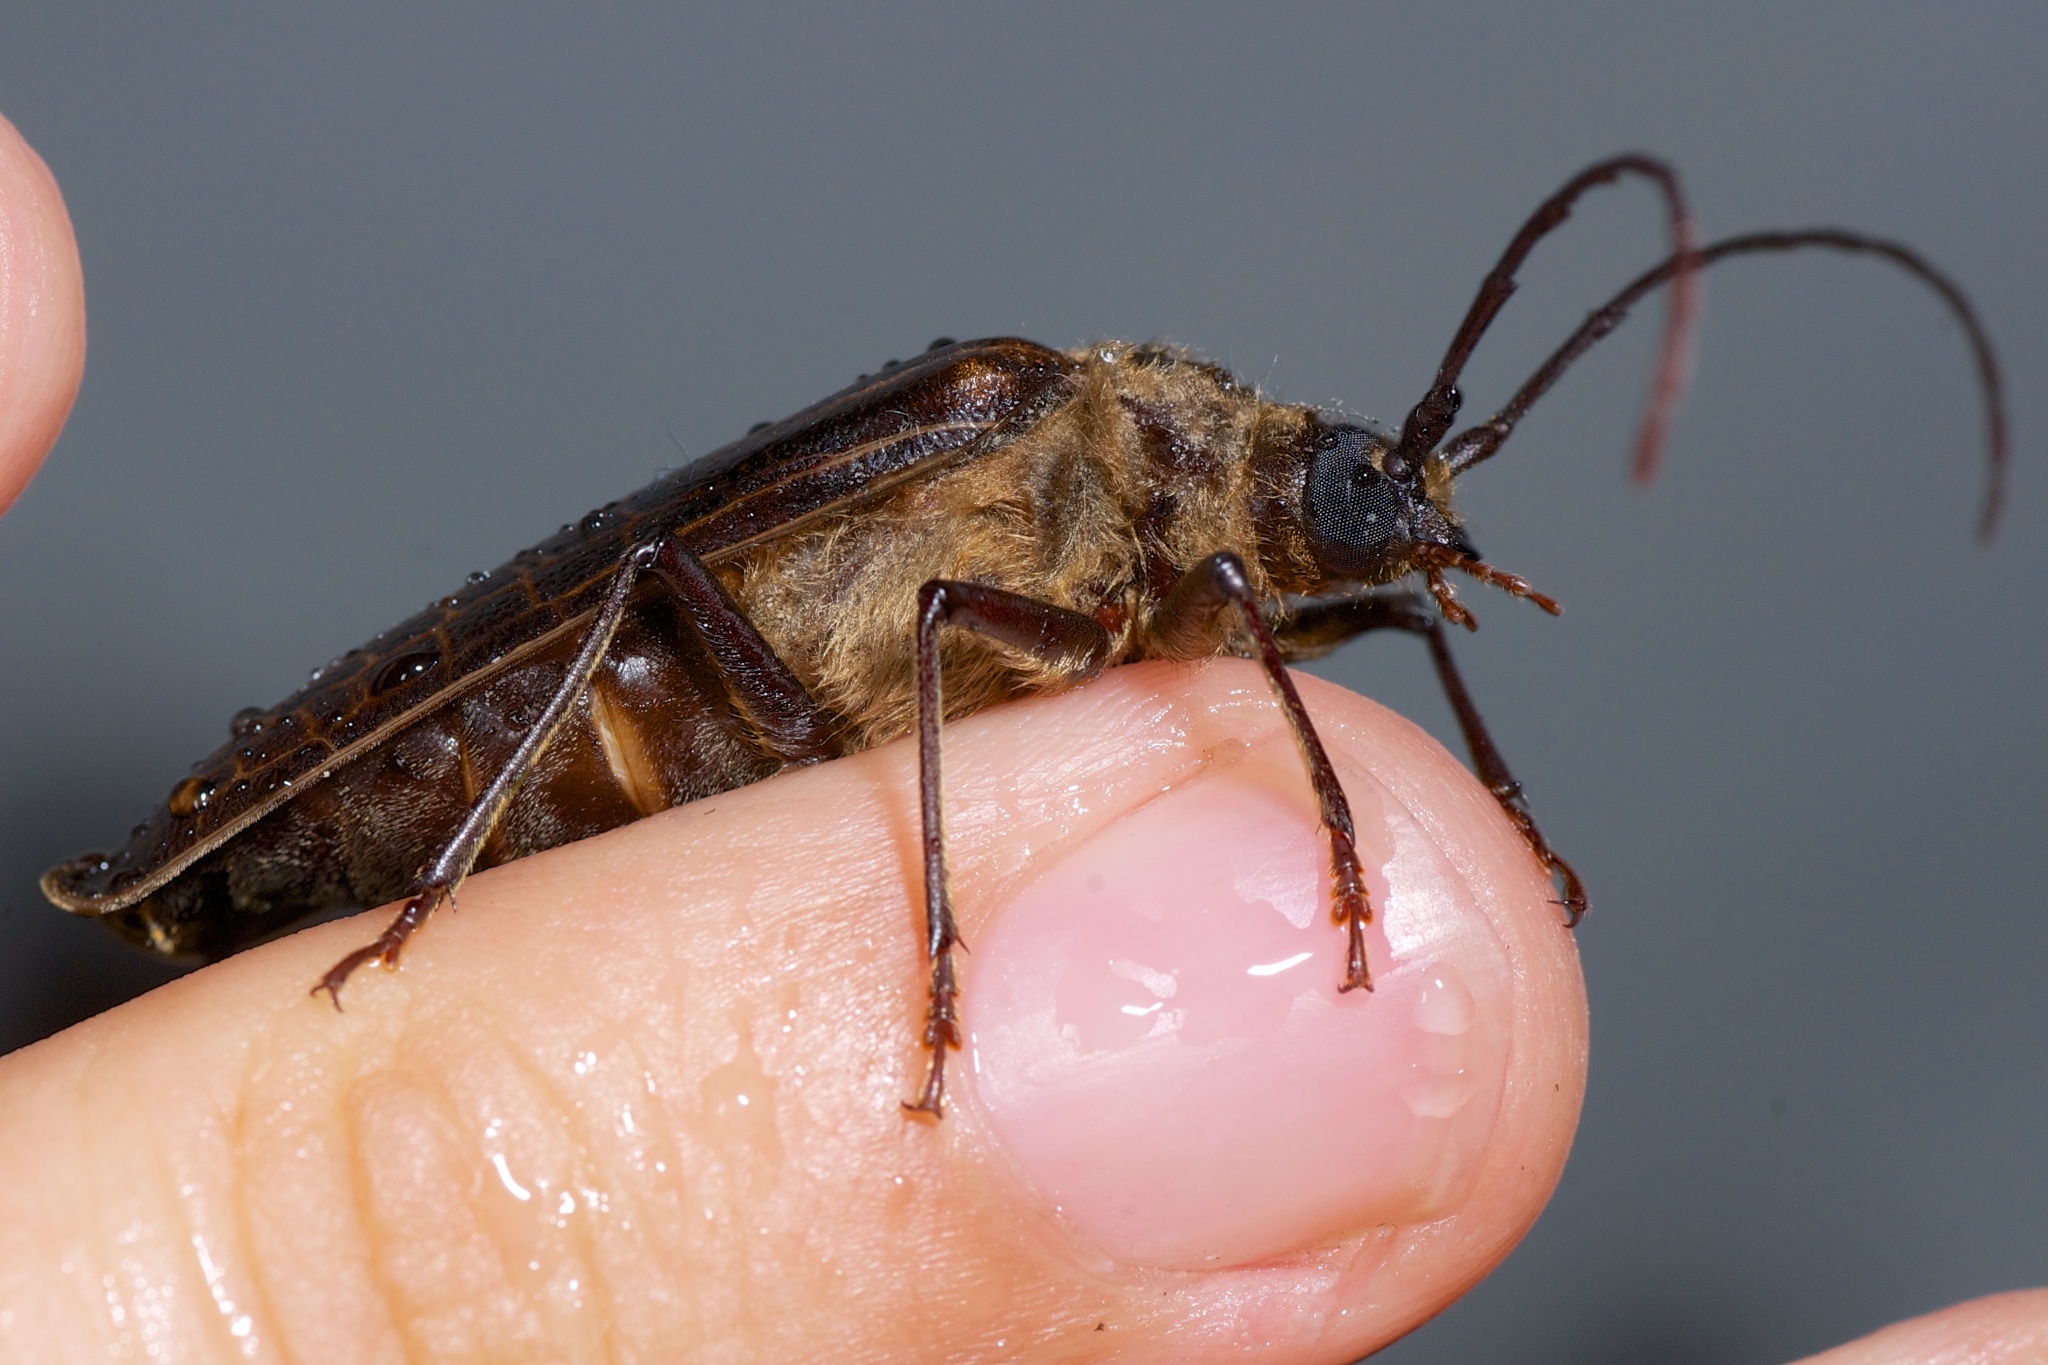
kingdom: Animalia
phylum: Arthropoda
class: Insecta
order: Coleoptera
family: Cerambycidae
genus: Prionoplus
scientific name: Prionoplus reticularis
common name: Huhu beetle
